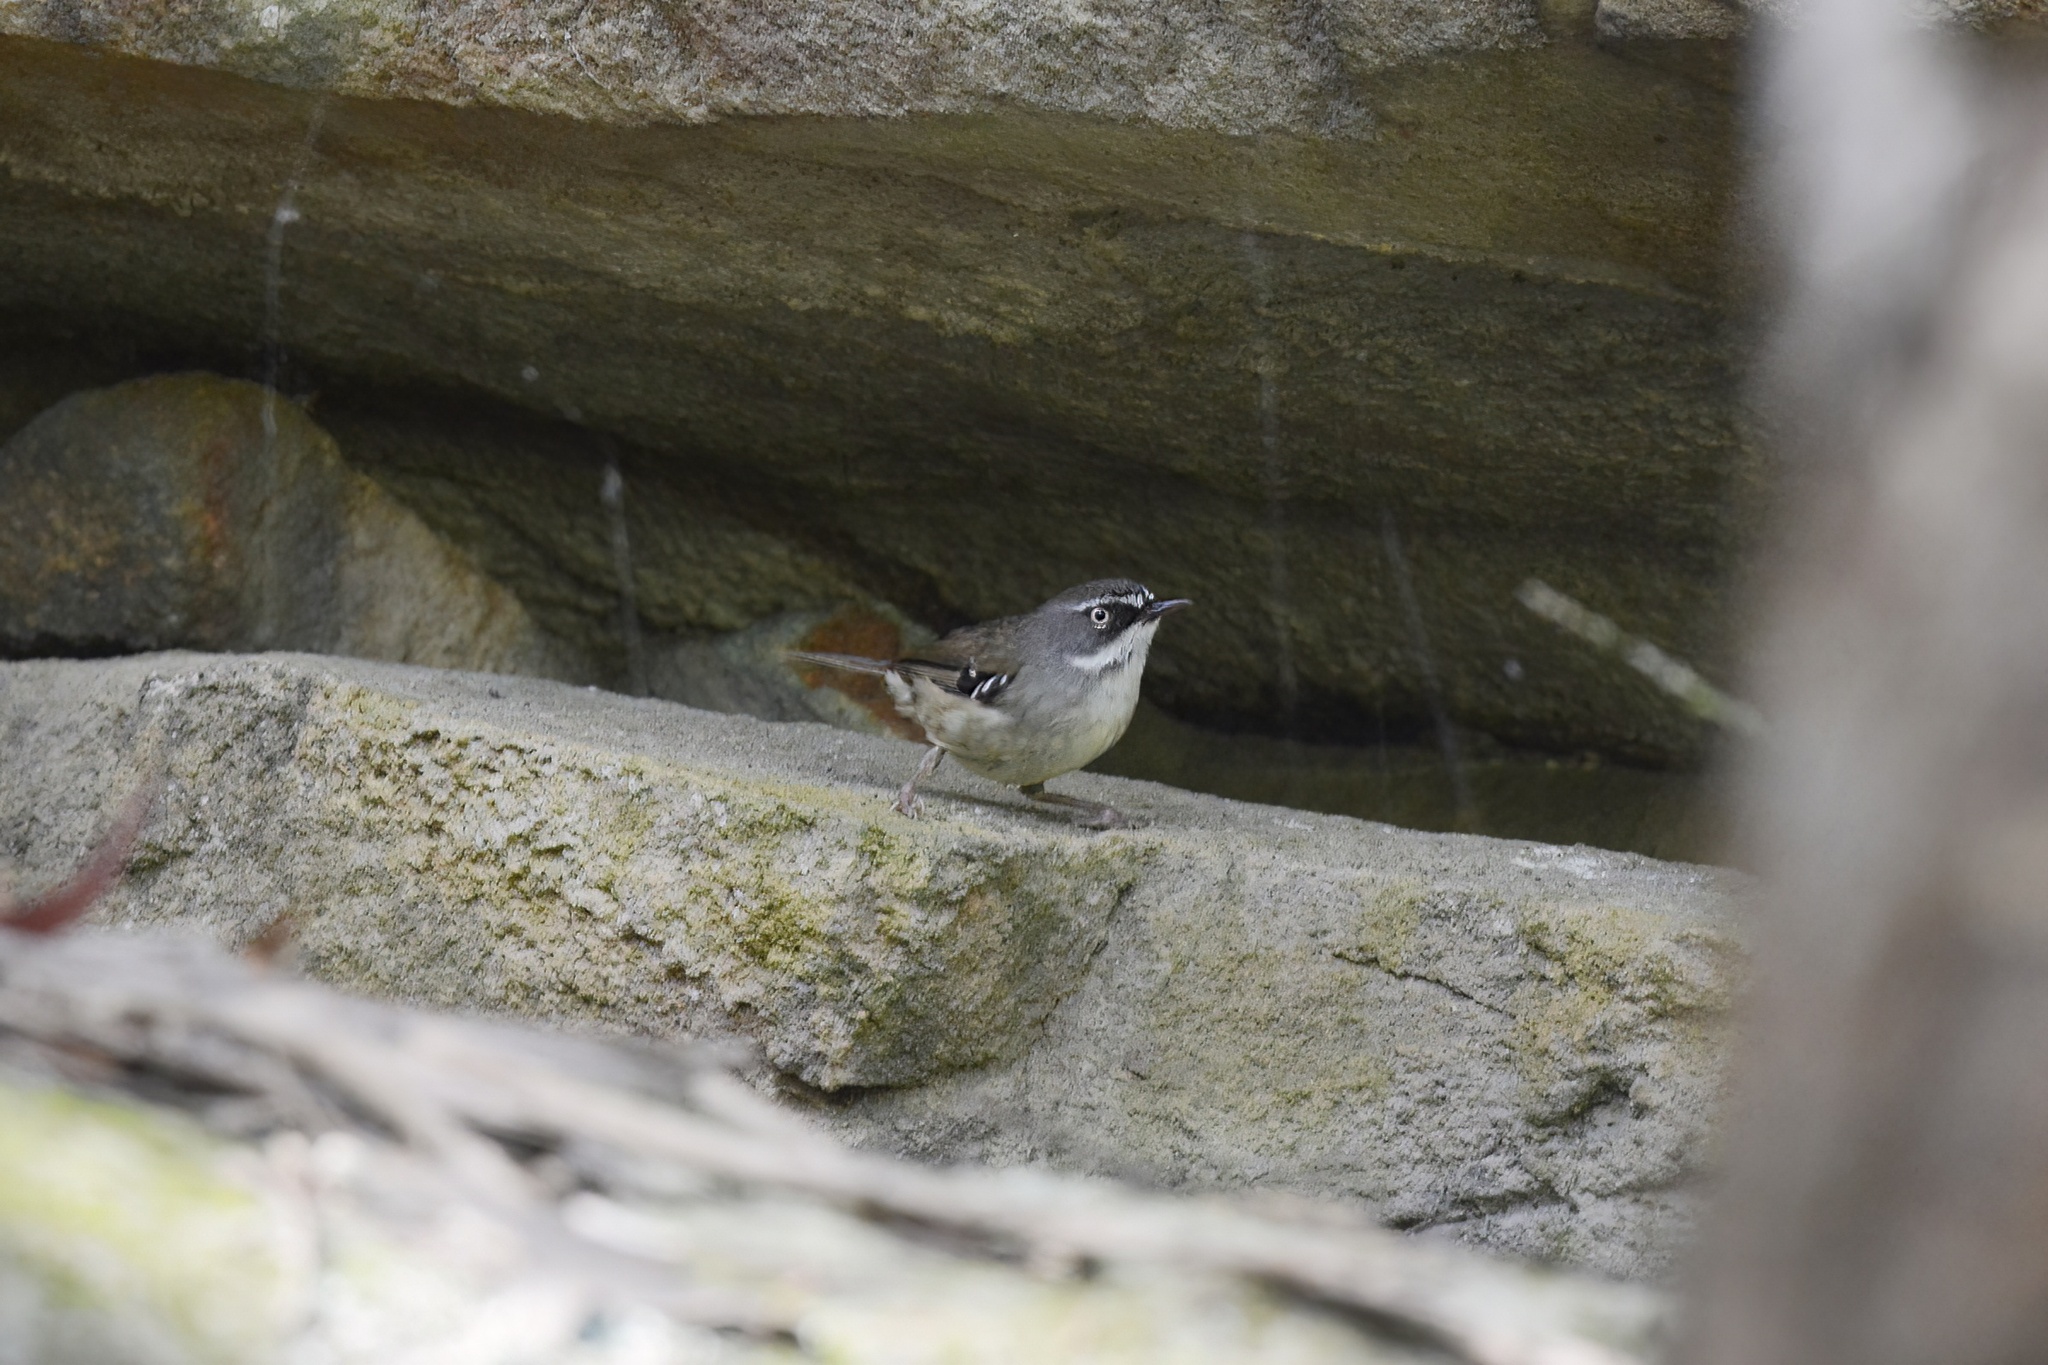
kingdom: Animalia
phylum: Chordata
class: Aves
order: Passeriformes
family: Acanthizidae
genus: Sericornis
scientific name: Sericornis frontalis
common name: White-browed scrubwren
